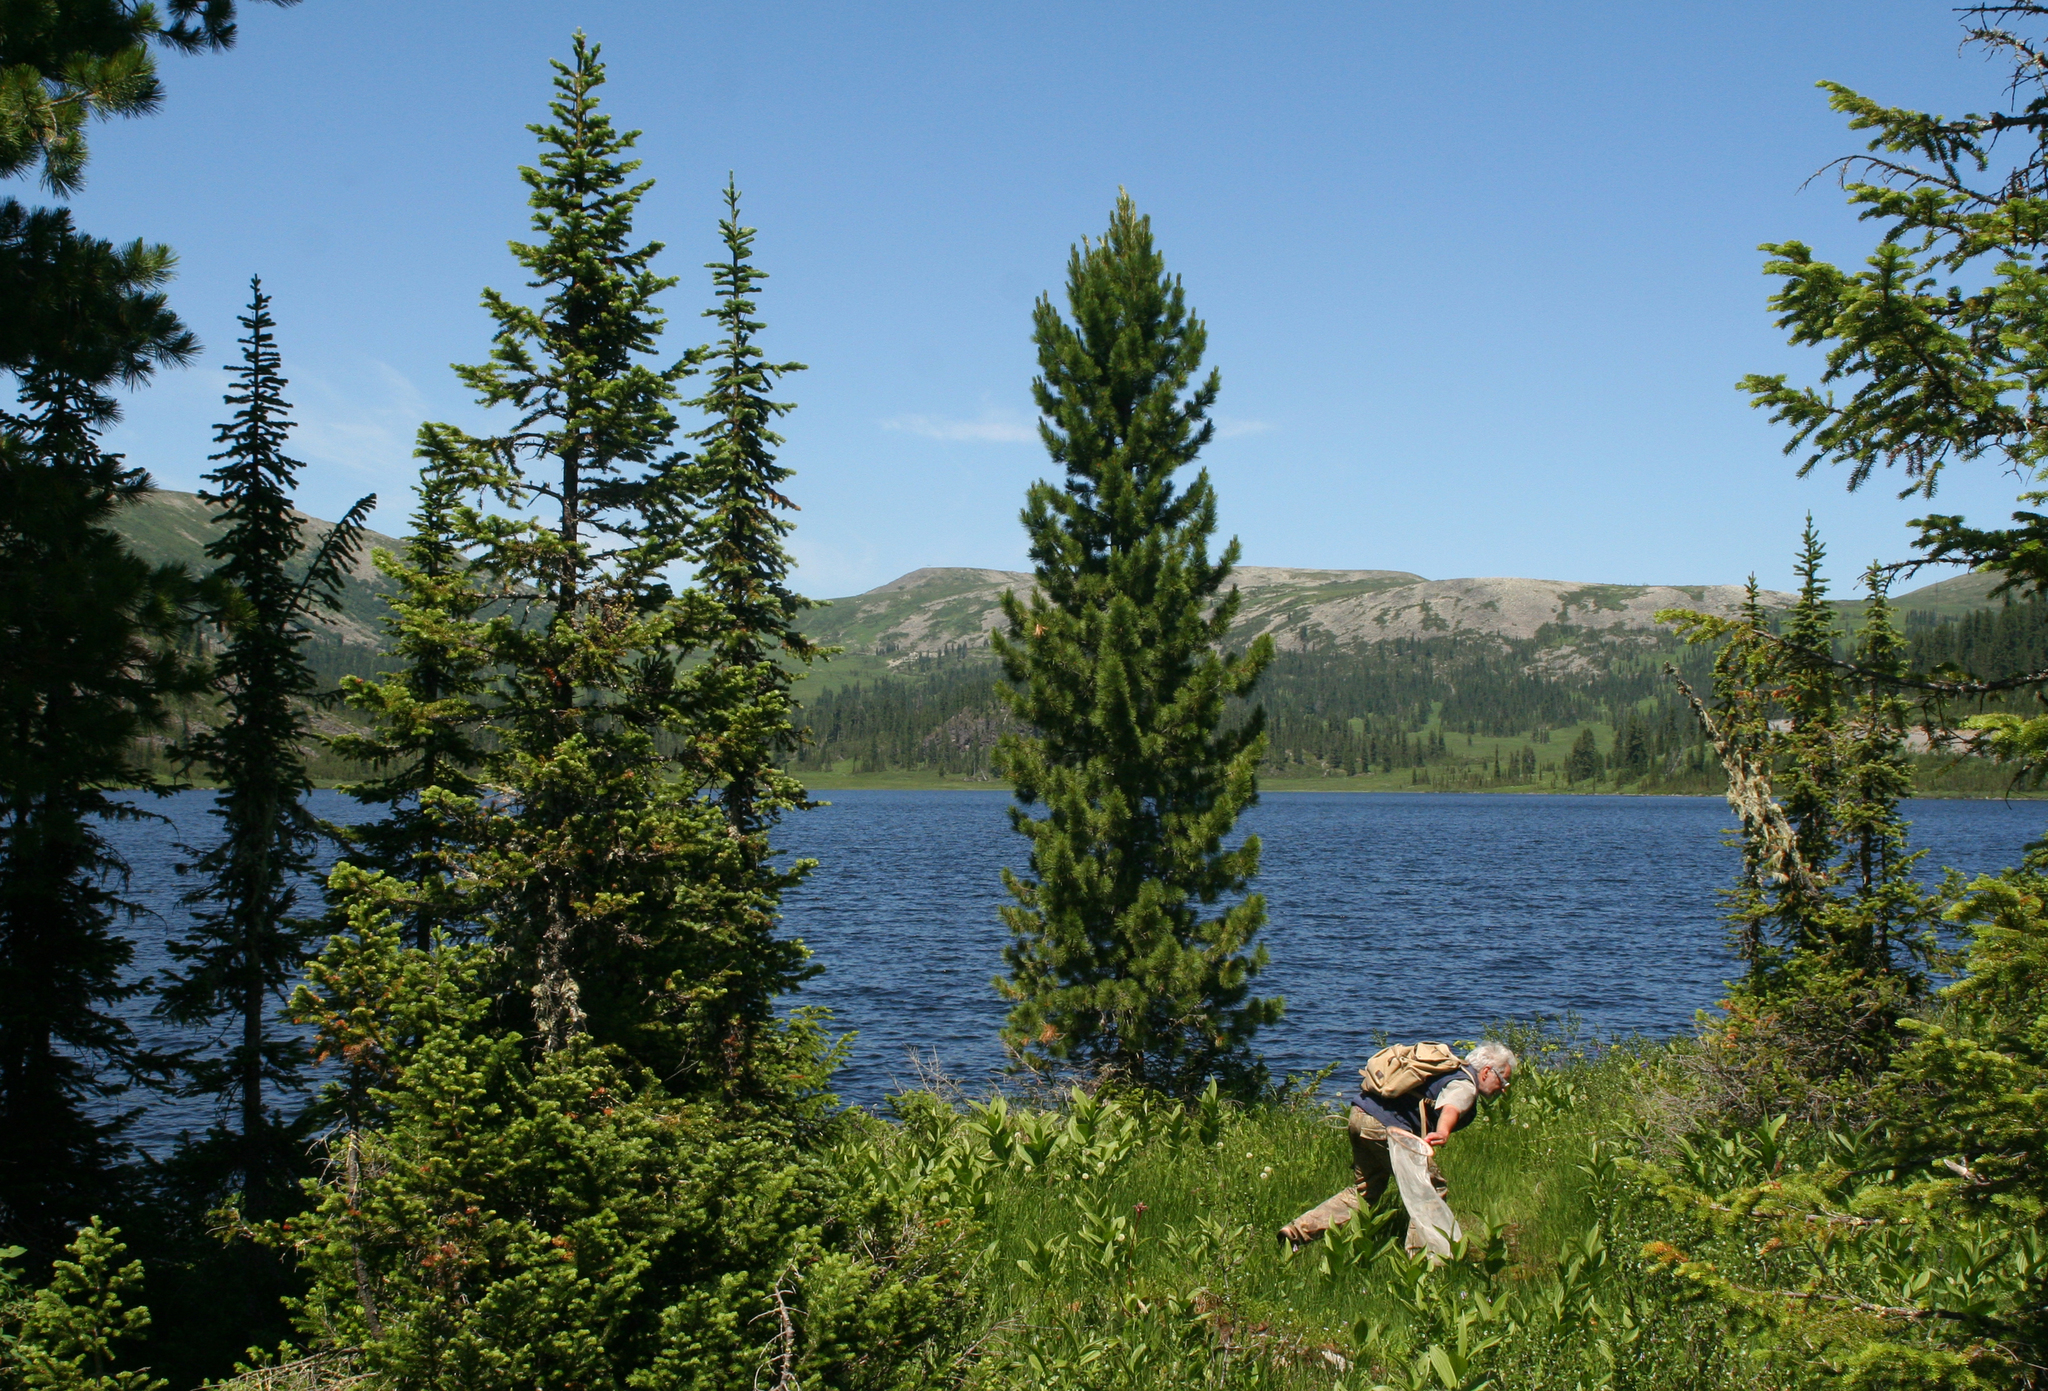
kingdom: Plantae
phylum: Tracheophyta
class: Pinopsida
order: Pinales
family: Pinaceae
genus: Abies
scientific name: Abies sibirica
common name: Siberian fir
